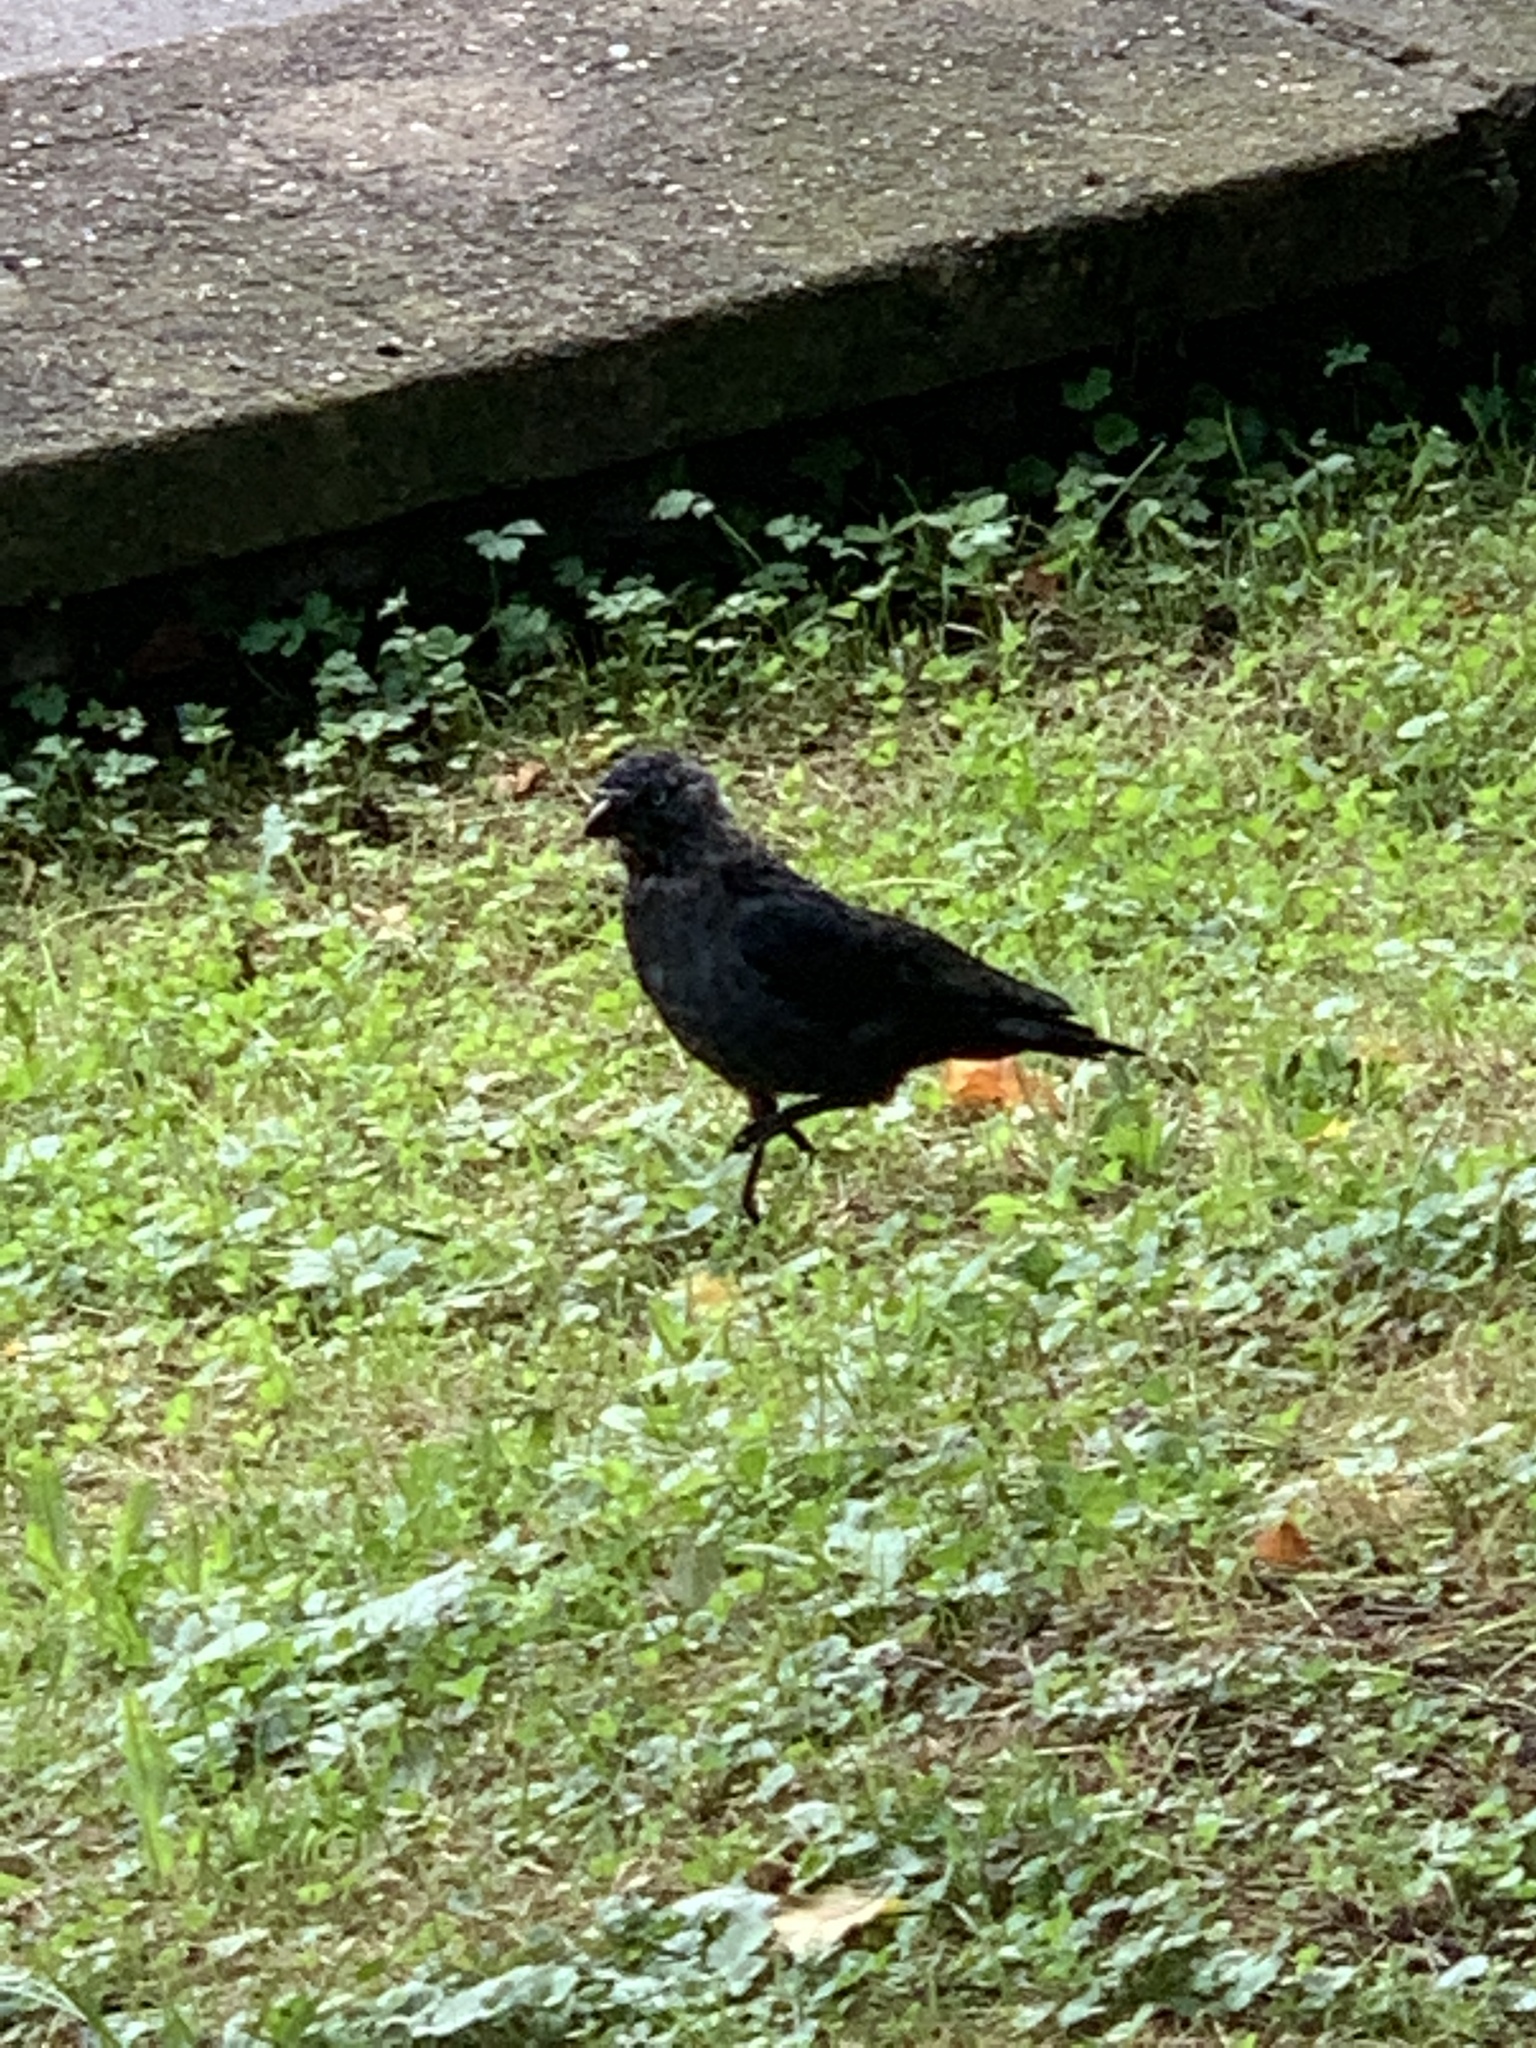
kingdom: Animalia
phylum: Chordata
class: Aves
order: Passeriformes
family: Corvidae
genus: Coloeus
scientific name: Coloeus monedula
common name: Western jackdaw
